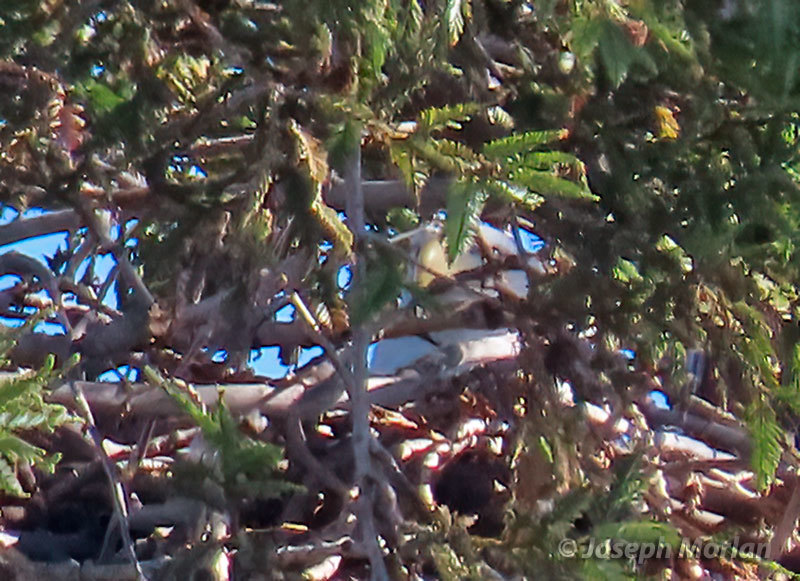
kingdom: Animalia
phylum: Chordata
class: Aves
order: Accipitriformes
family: Accipitridae
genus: Haliaeetus
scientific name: Haliaeetus leucocephalus
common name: Bald eagle
